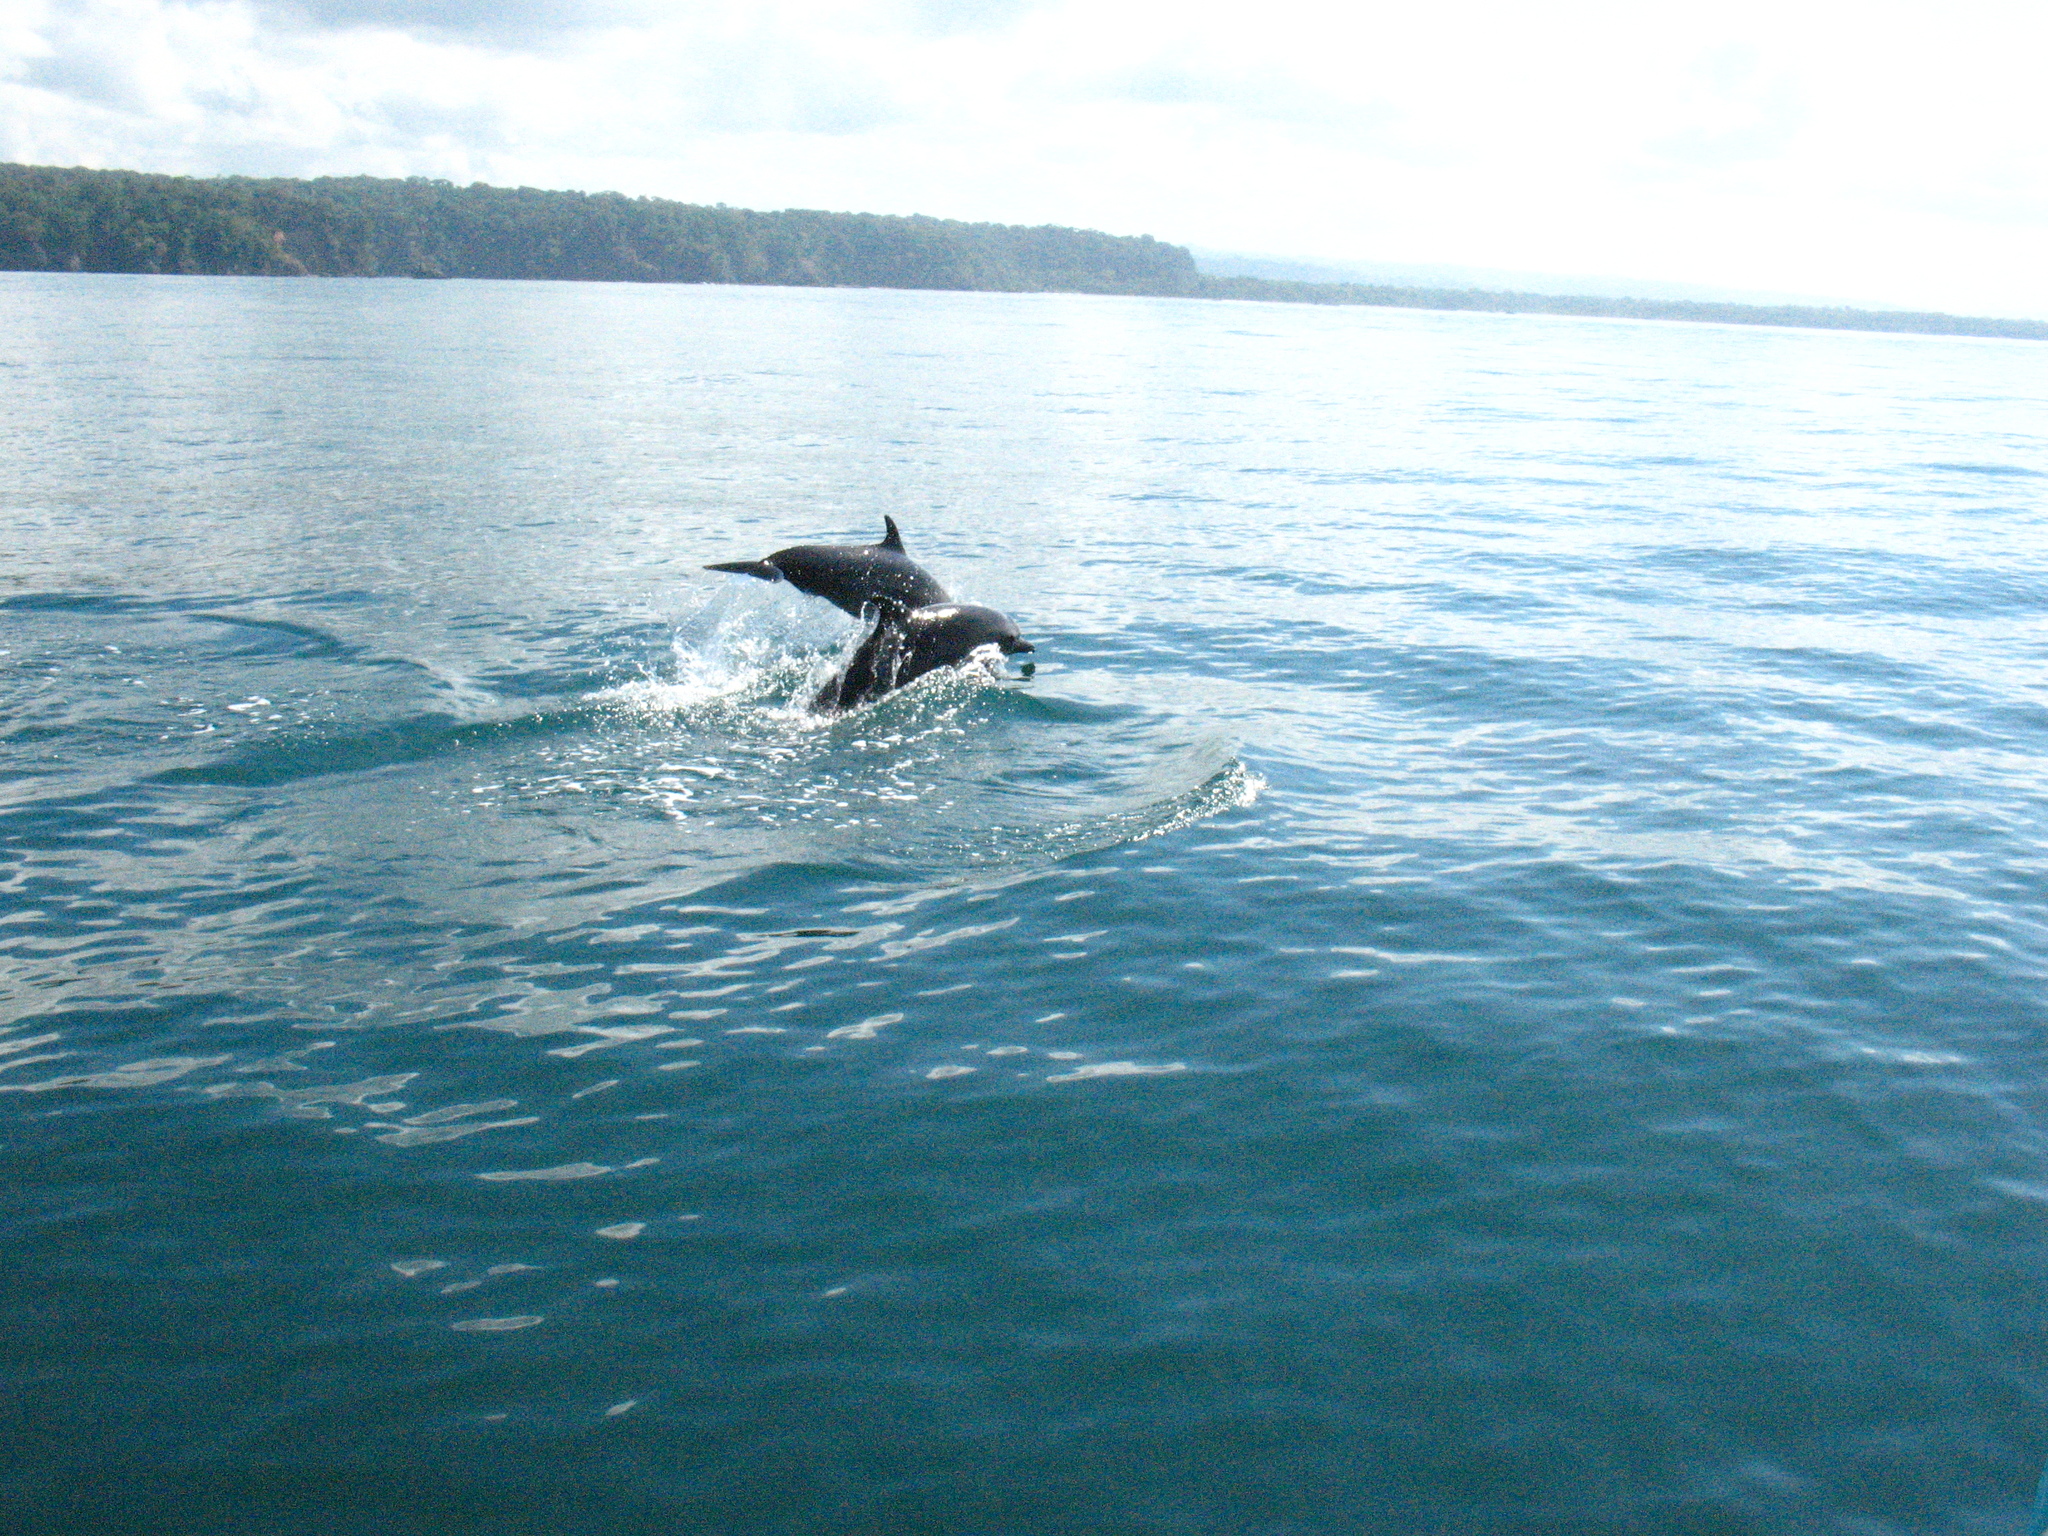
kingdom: Animalia
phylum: Chordata
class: Mammalia
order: Cetacea
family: Delphinidae
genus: Stenella
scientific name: Stenella attenuata
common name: Pantropical spotted dolphin
